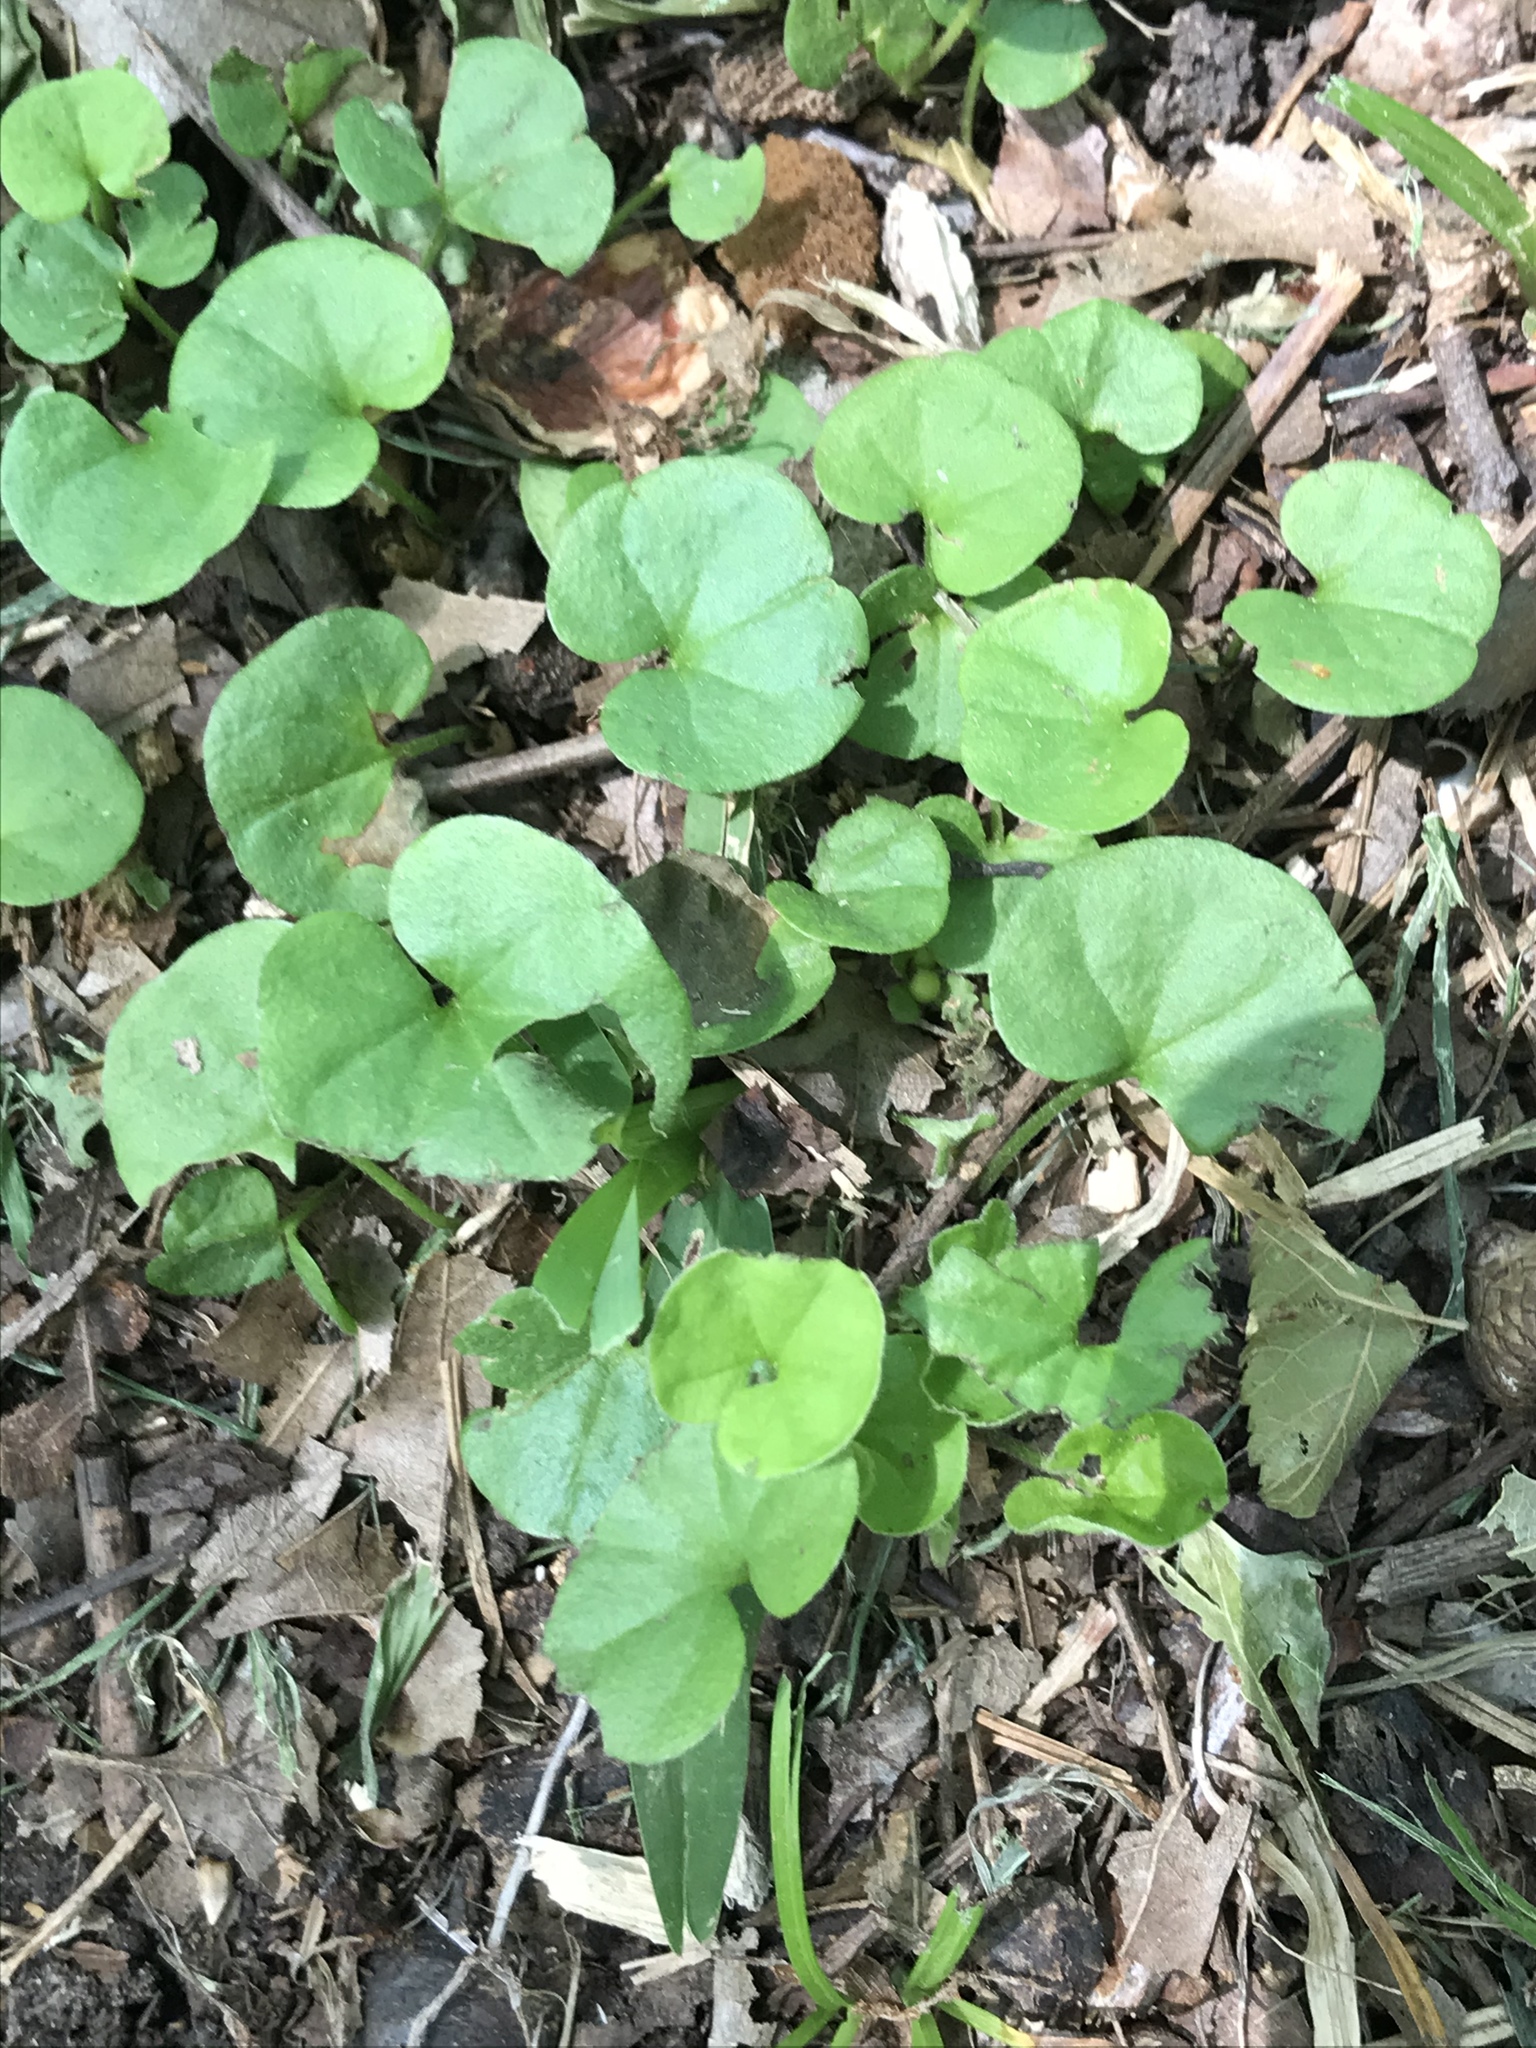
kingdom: Plantae
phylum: Tracheophyta
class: Magnoliopsida
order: Solanales
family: Convolvulaceae
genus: Dichondra
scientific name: Dichondra carolinensis
